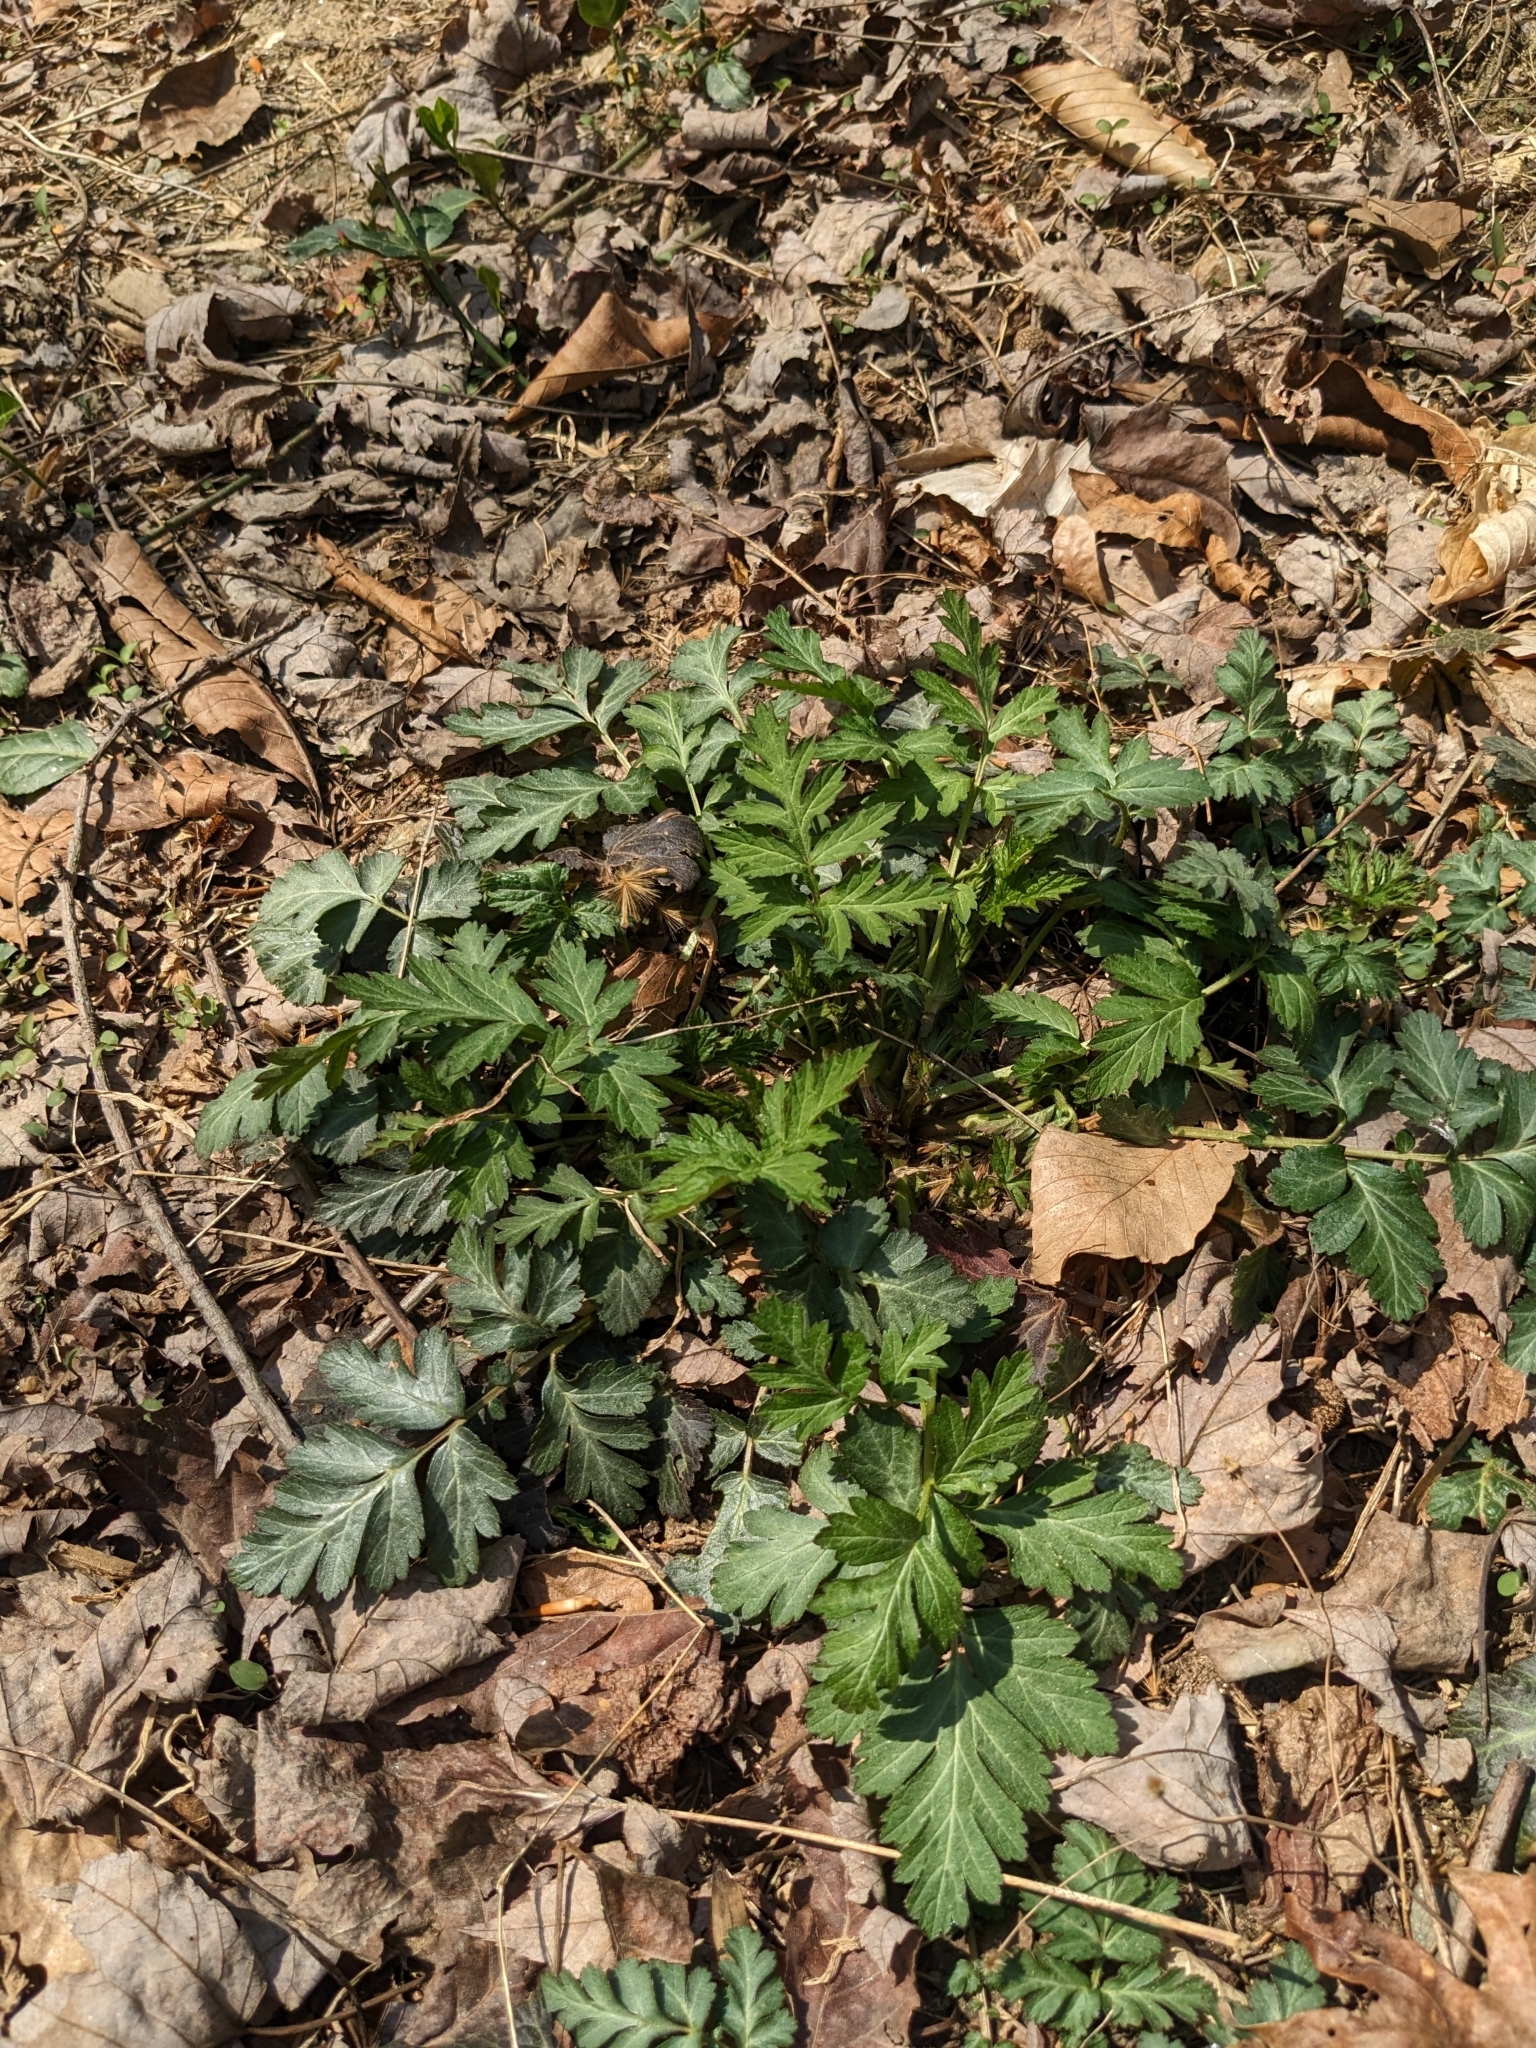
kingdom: Plantae
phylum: Tracheophyta
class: Magnoliopsida
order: Rosales
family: Rosaceae
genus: Geum
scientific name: Geum canadense
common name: White avens
